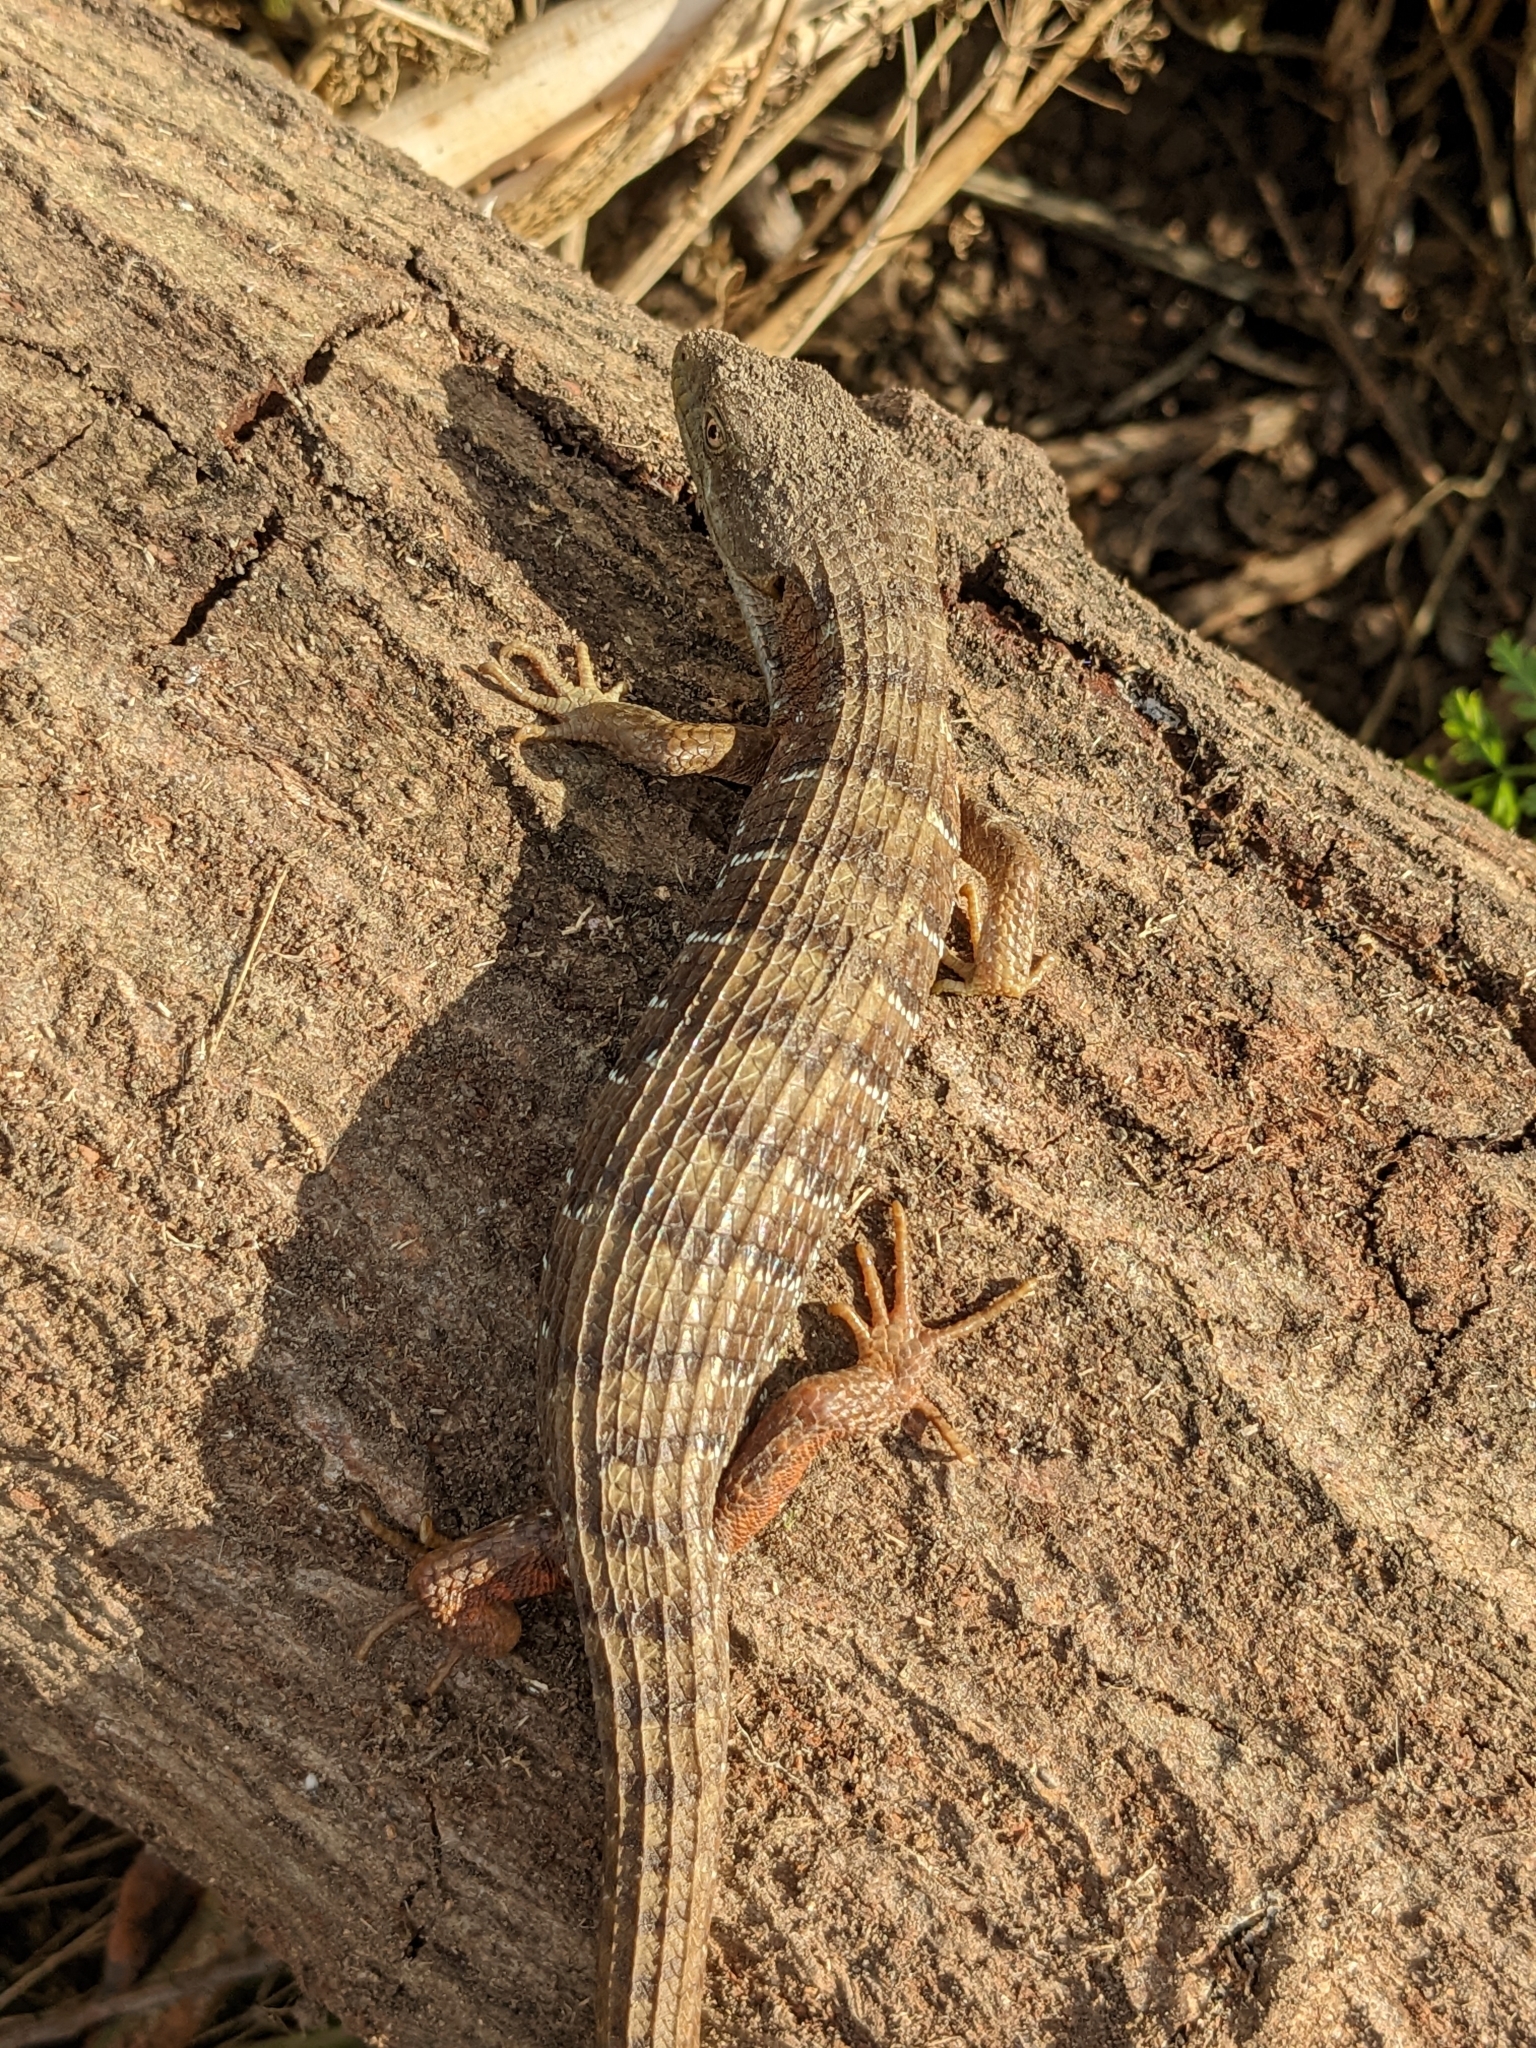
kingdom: Animalia
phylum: Chordata
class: Squamata
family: Anguidae
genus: Elgaria
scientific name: Elgaria multicarinata
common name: Southern alligator lizard
